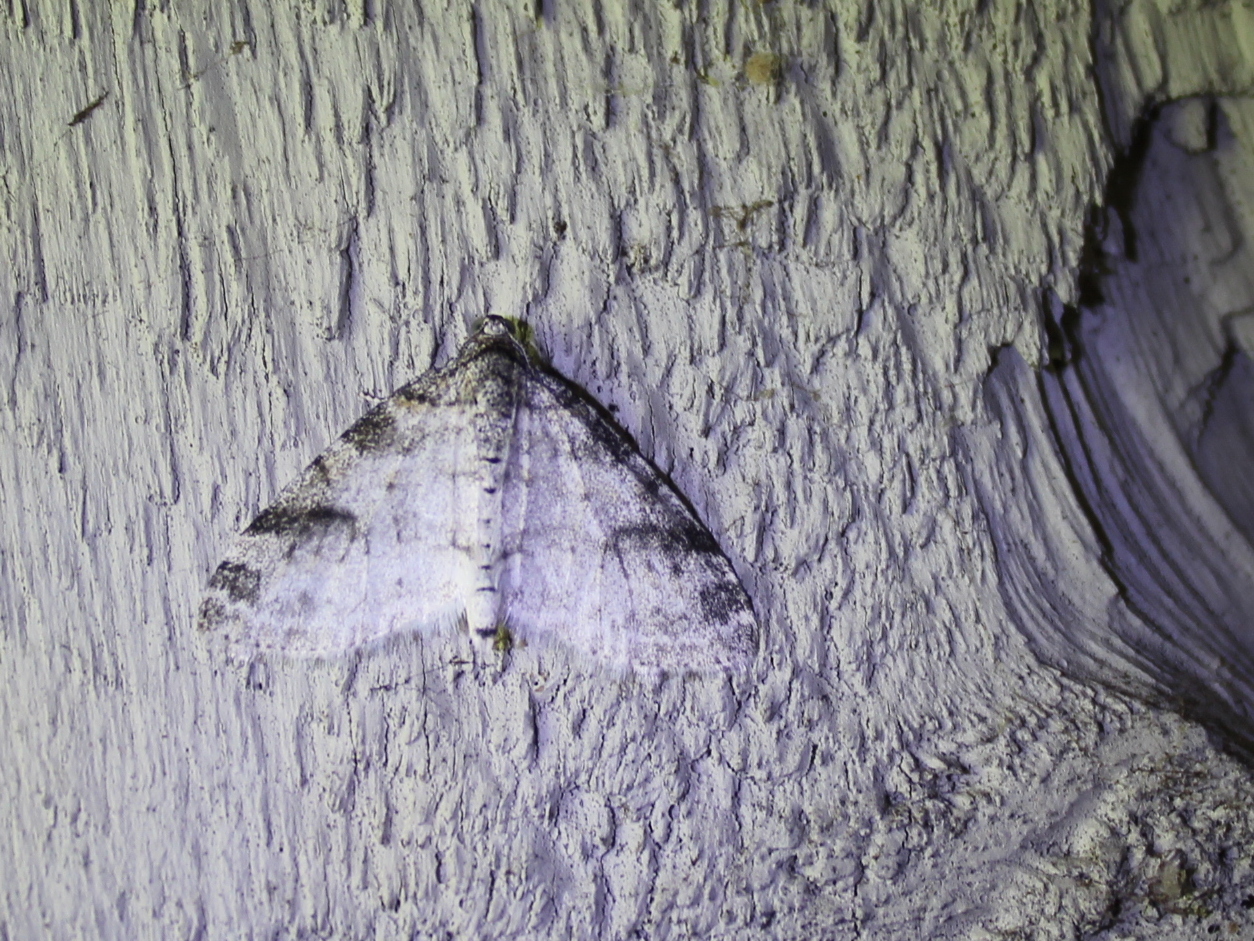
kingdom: Animalia
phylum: Arthropoda
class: Insecta
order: Lepidoptera
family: Geometridae
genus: Lobophora
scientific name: Lobophora nivigerata
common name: Powdered bigwing
